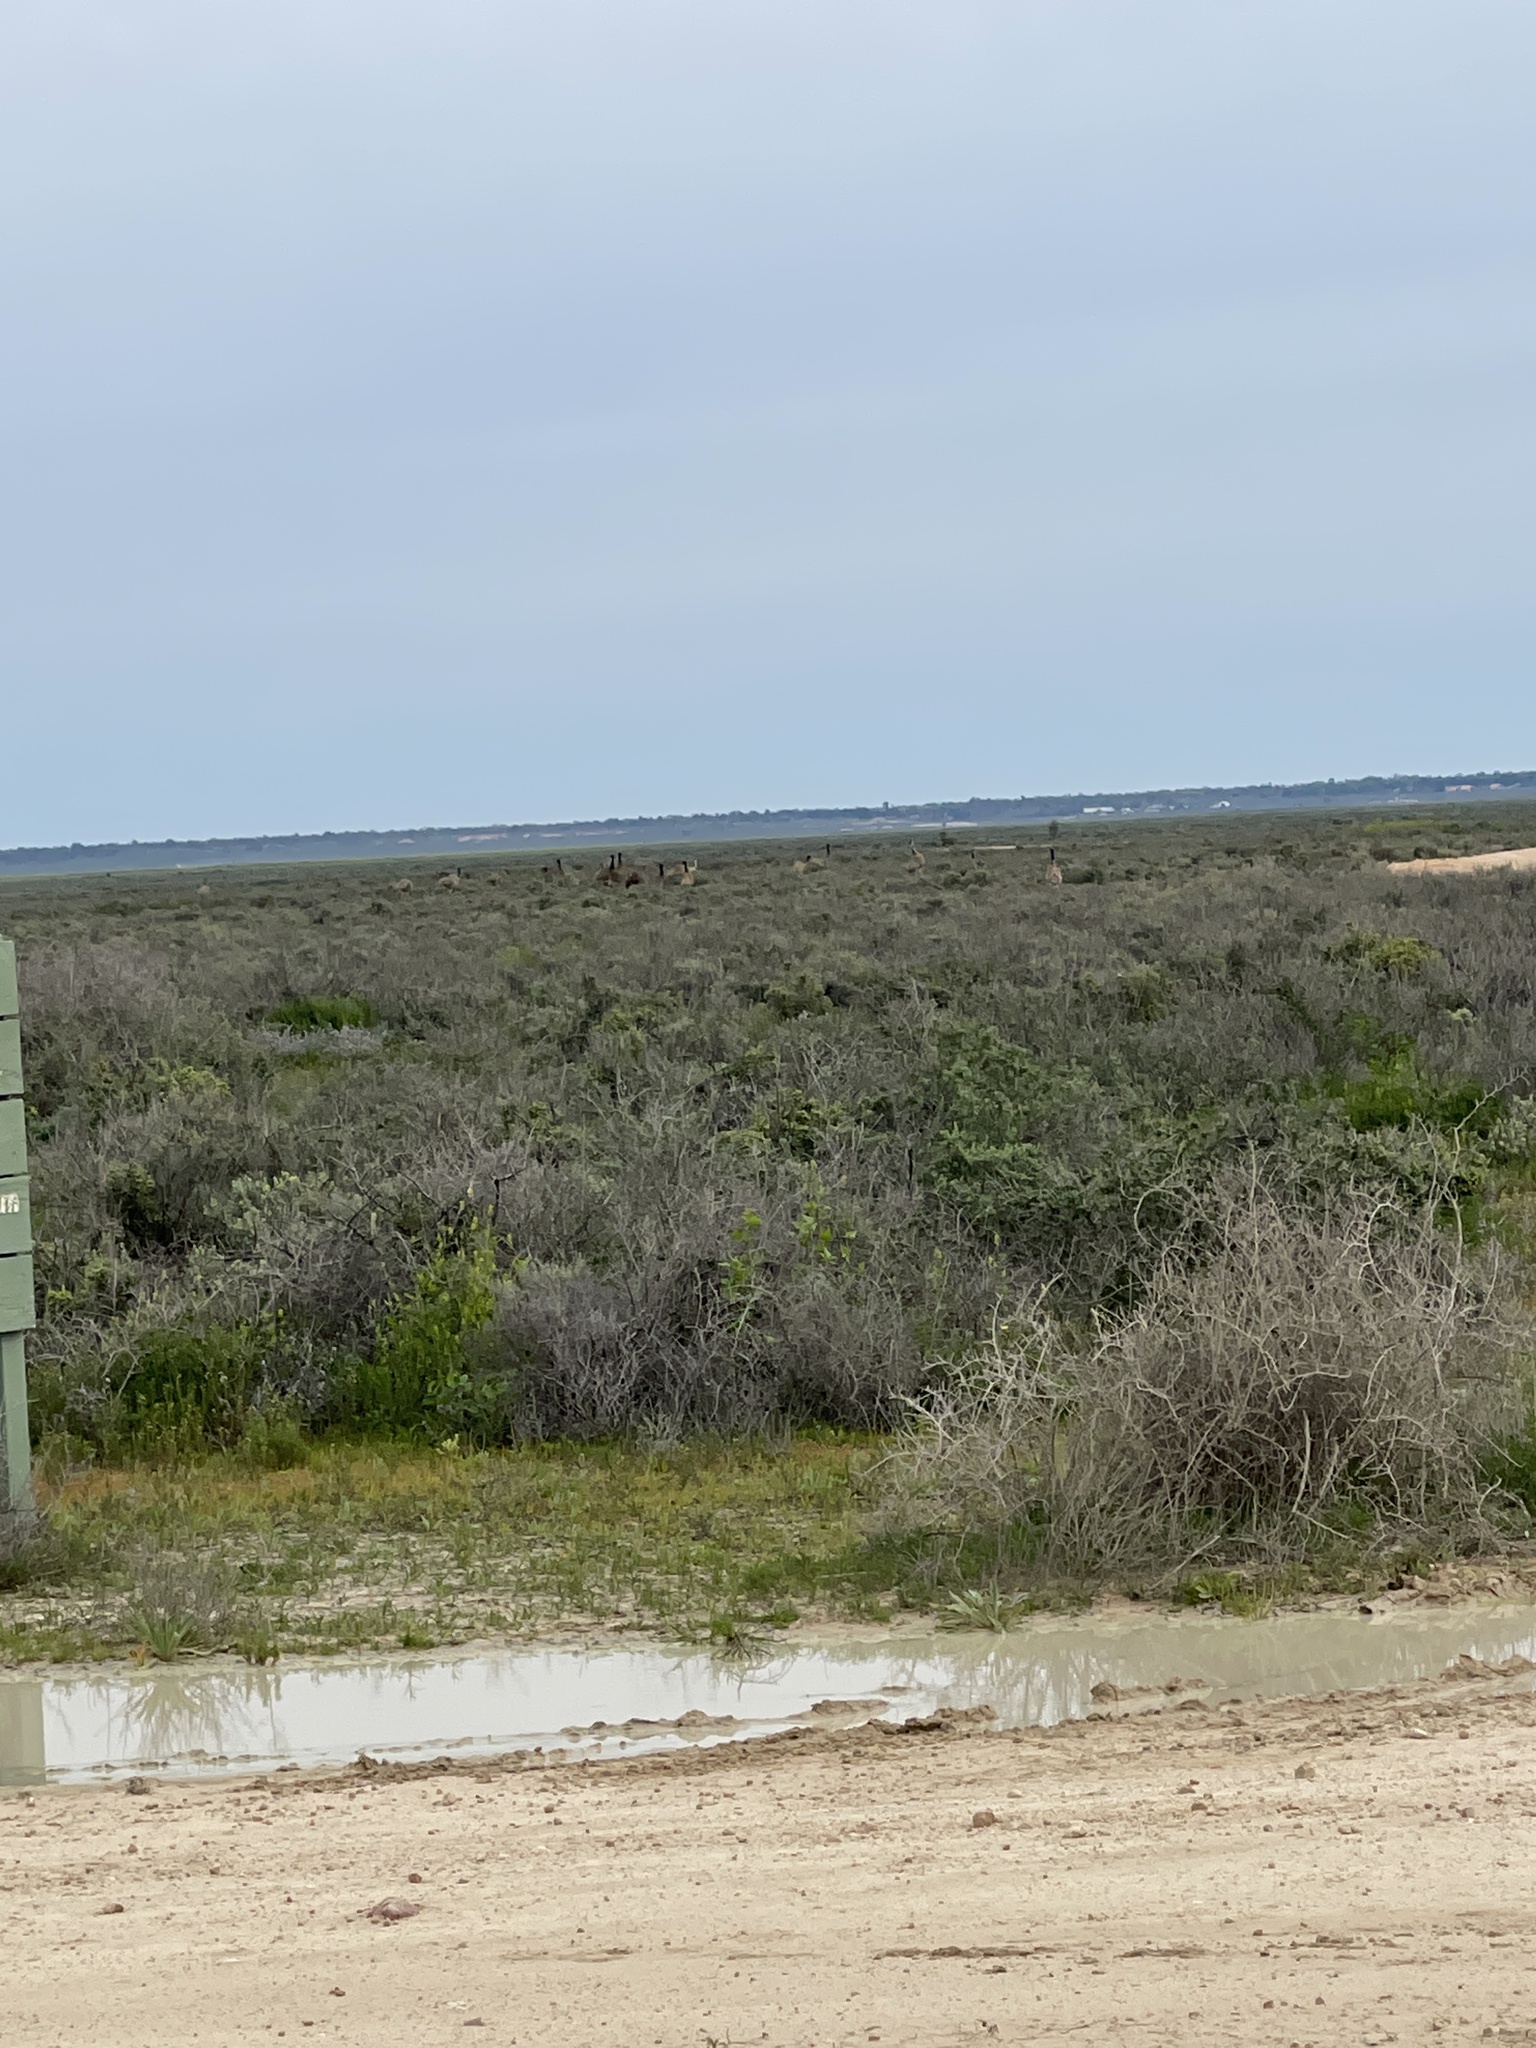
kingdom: Animalia
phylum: Chordata
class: Aves
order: Casuariiformes
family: Dromaiidae
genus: Dromaius
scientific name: Dromaius novaehollandiae
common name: Emu
